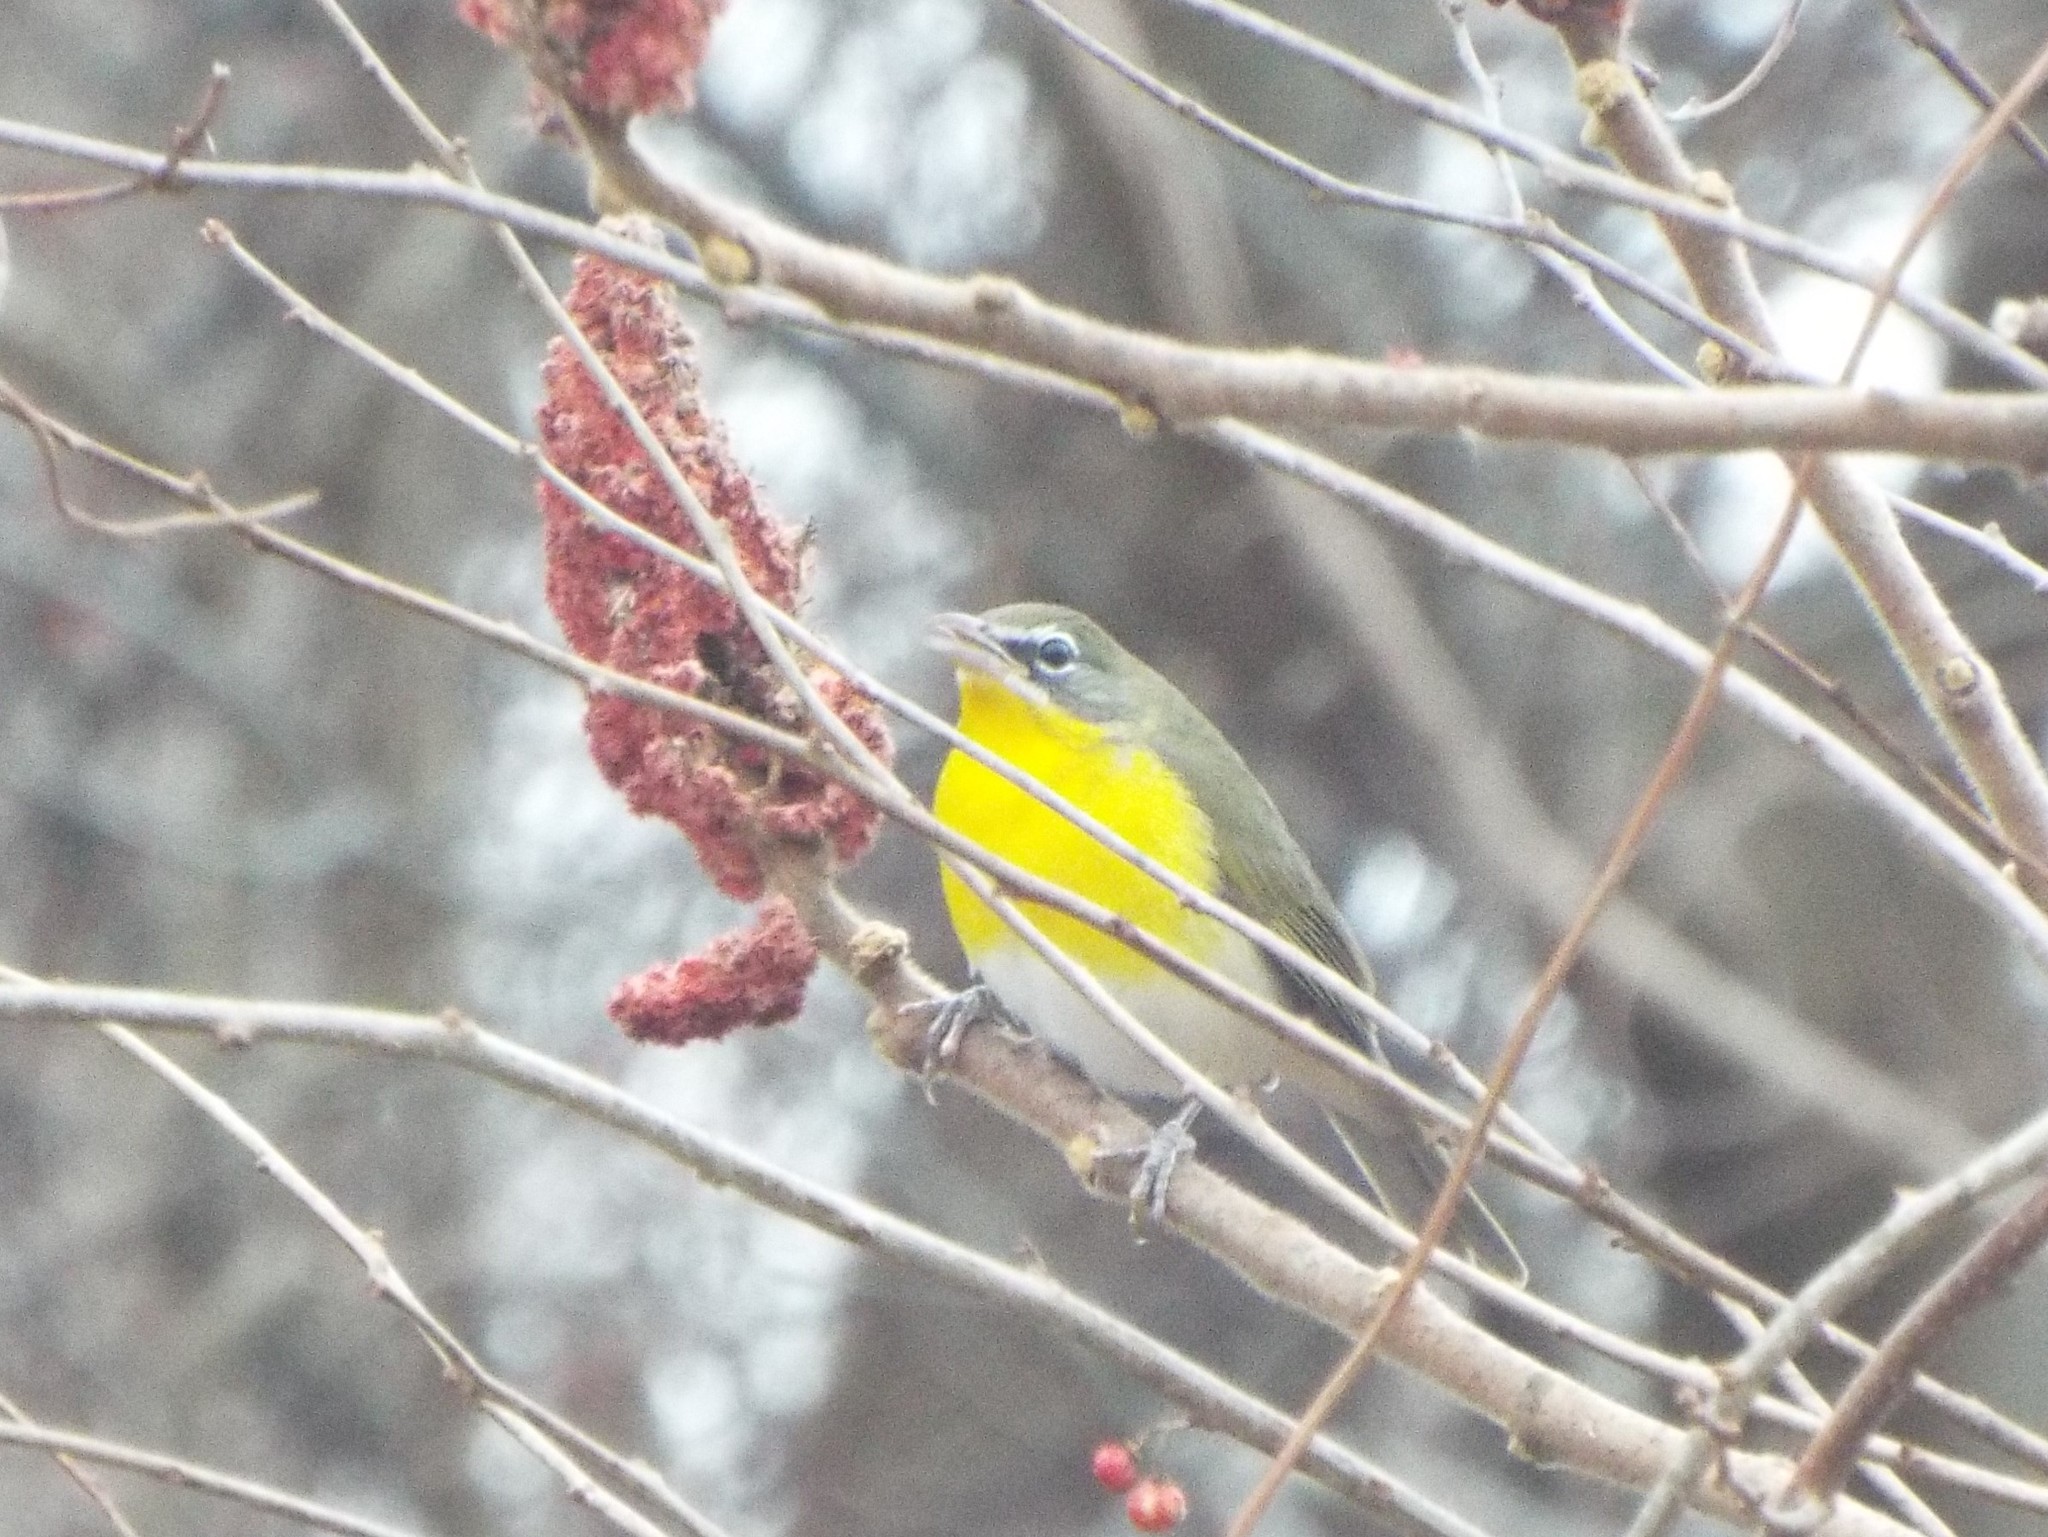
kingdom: Animalia
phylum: Chordata
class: Aves
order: Passeriformes
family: Parulidae
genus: Icteria
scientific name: Icteria virens
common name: Yellow-breasted chat
